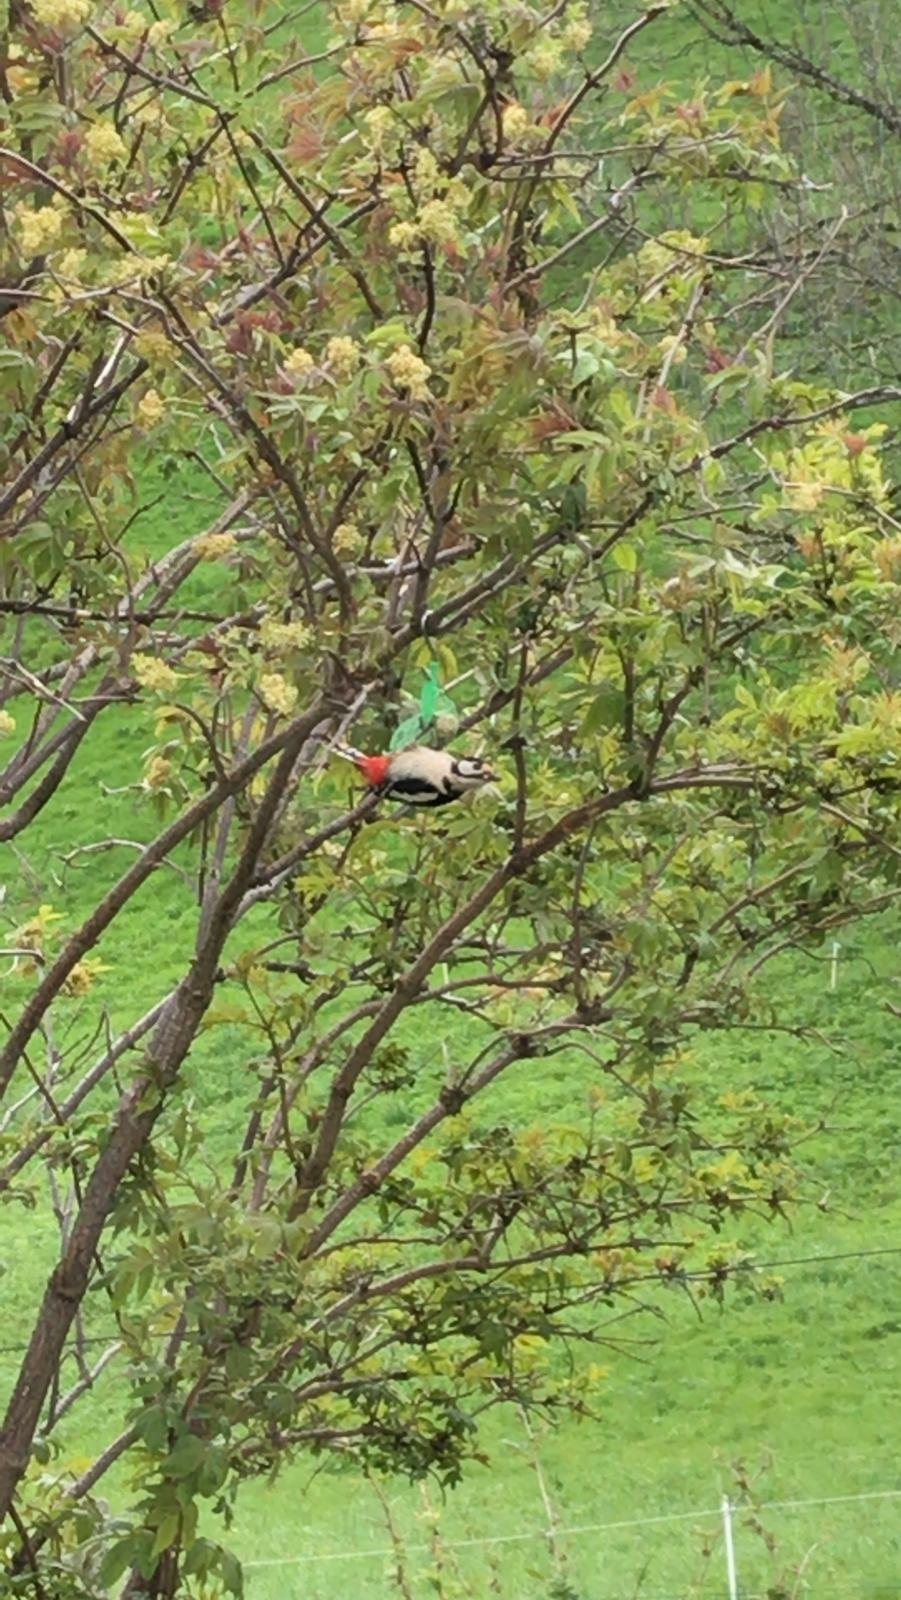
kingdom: Animalia
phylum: Chordata
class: Aves
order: Piciformes
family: Picidae
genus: Dendrocopos
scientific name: Dendrocopos major
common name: Great spotted woodpecker
